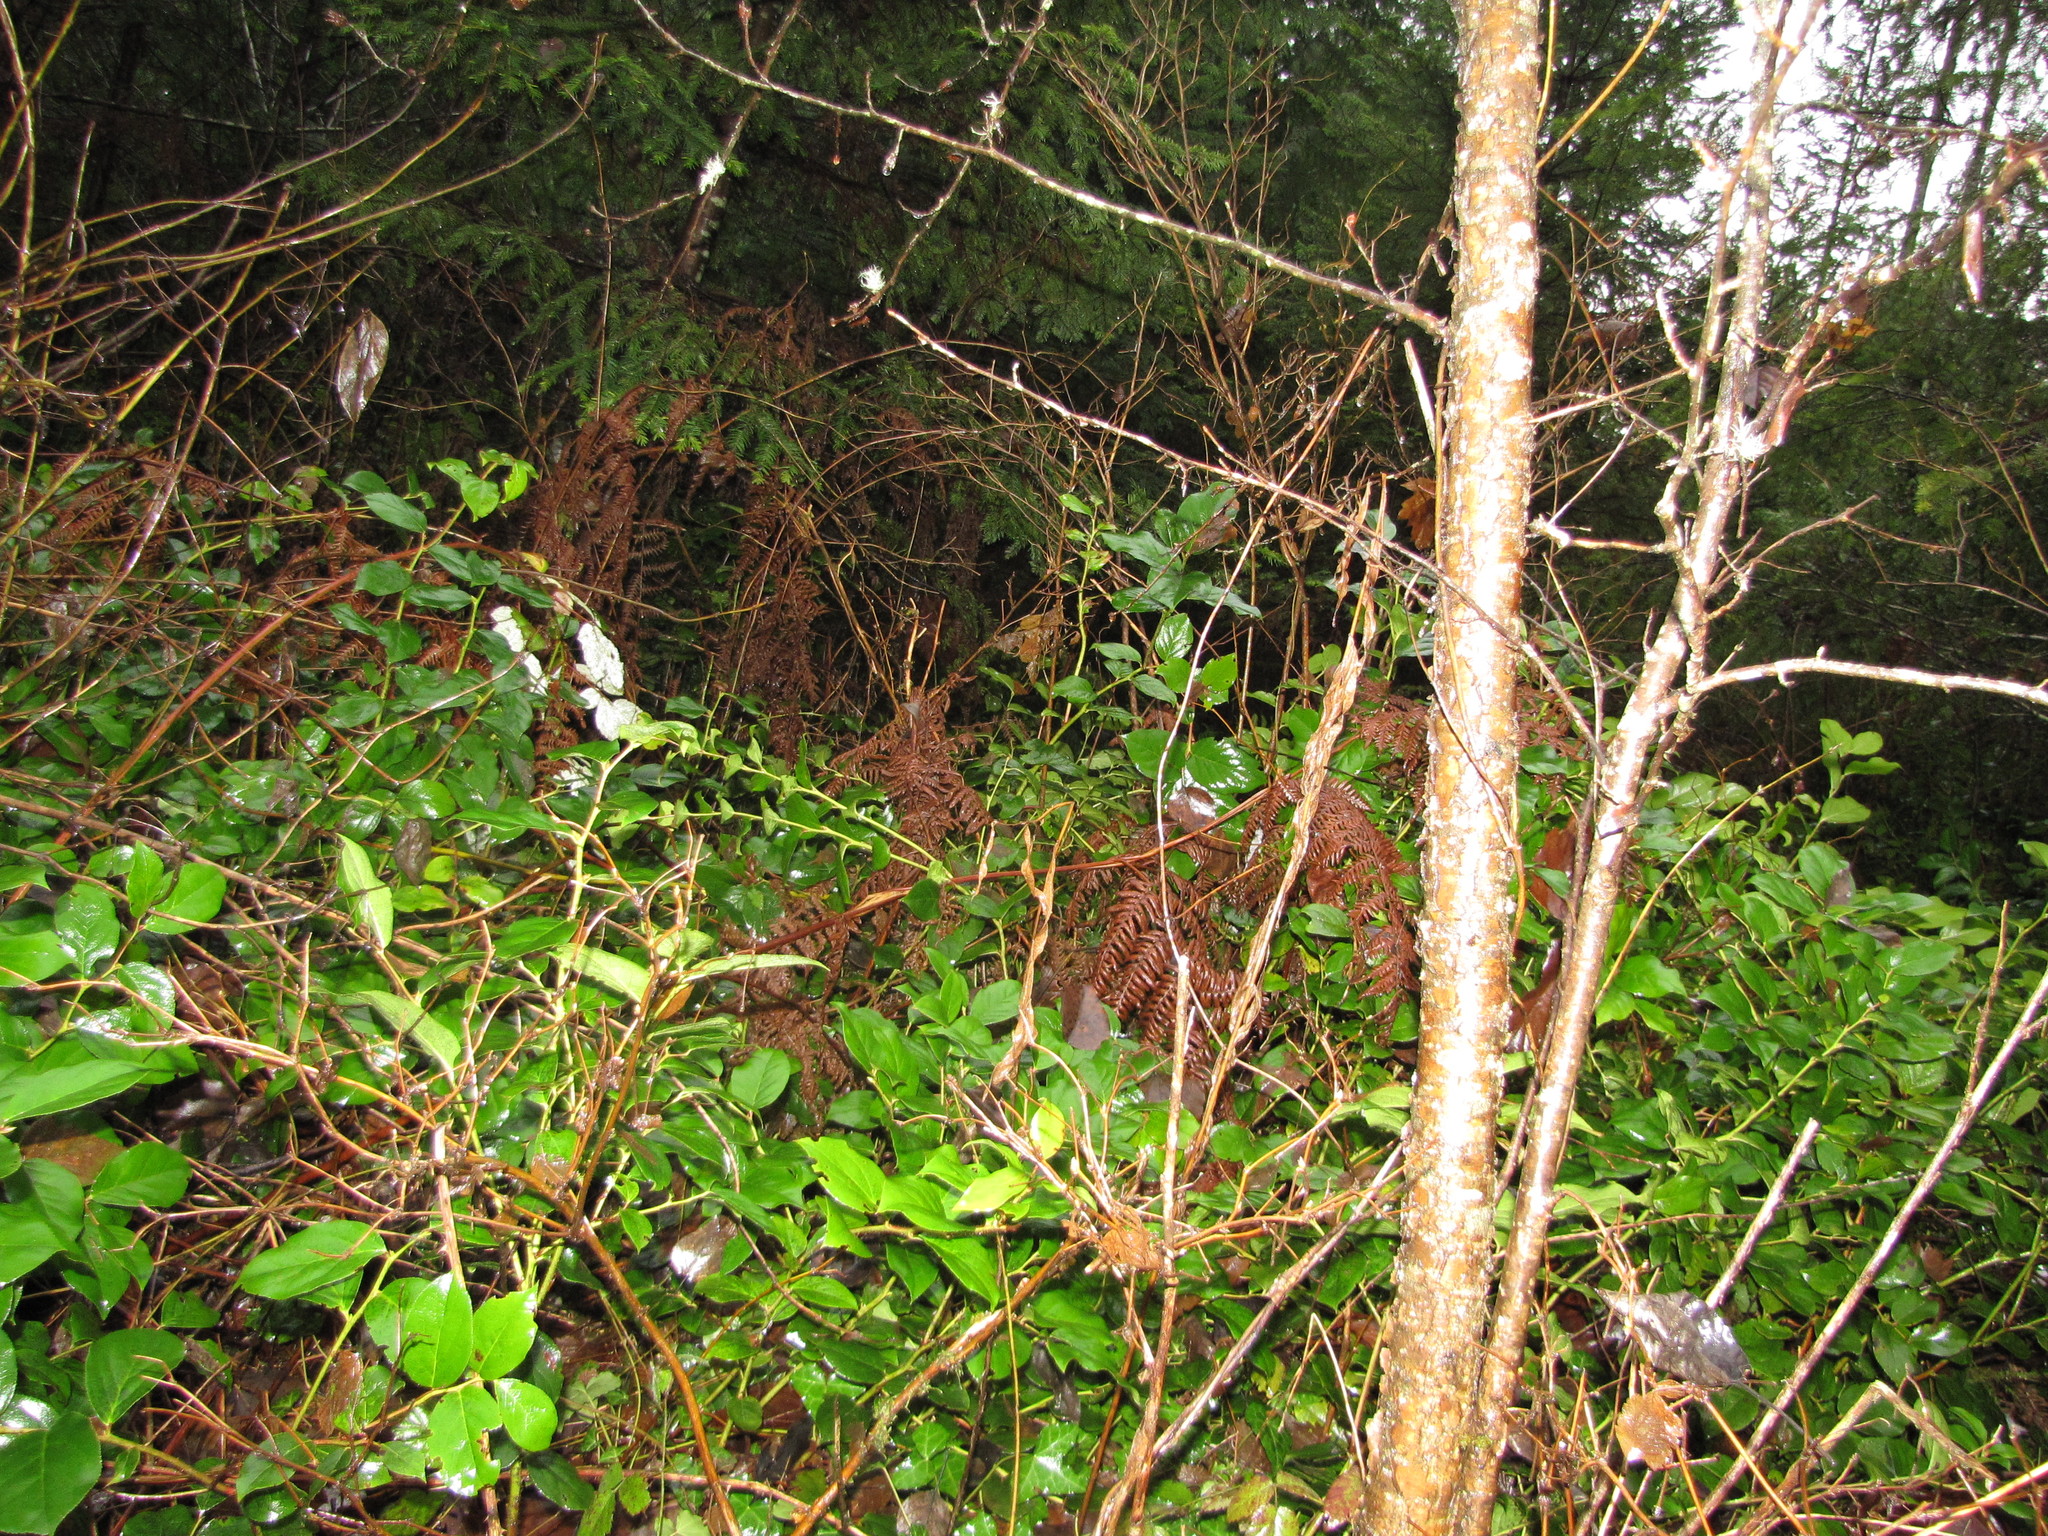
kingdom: Plantae
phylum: Tracheophyta
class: Magnoliopsida
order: Ericales
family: Ericaceae
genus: Gaultheria
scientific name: Gaultheria shallon
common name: Shallon
